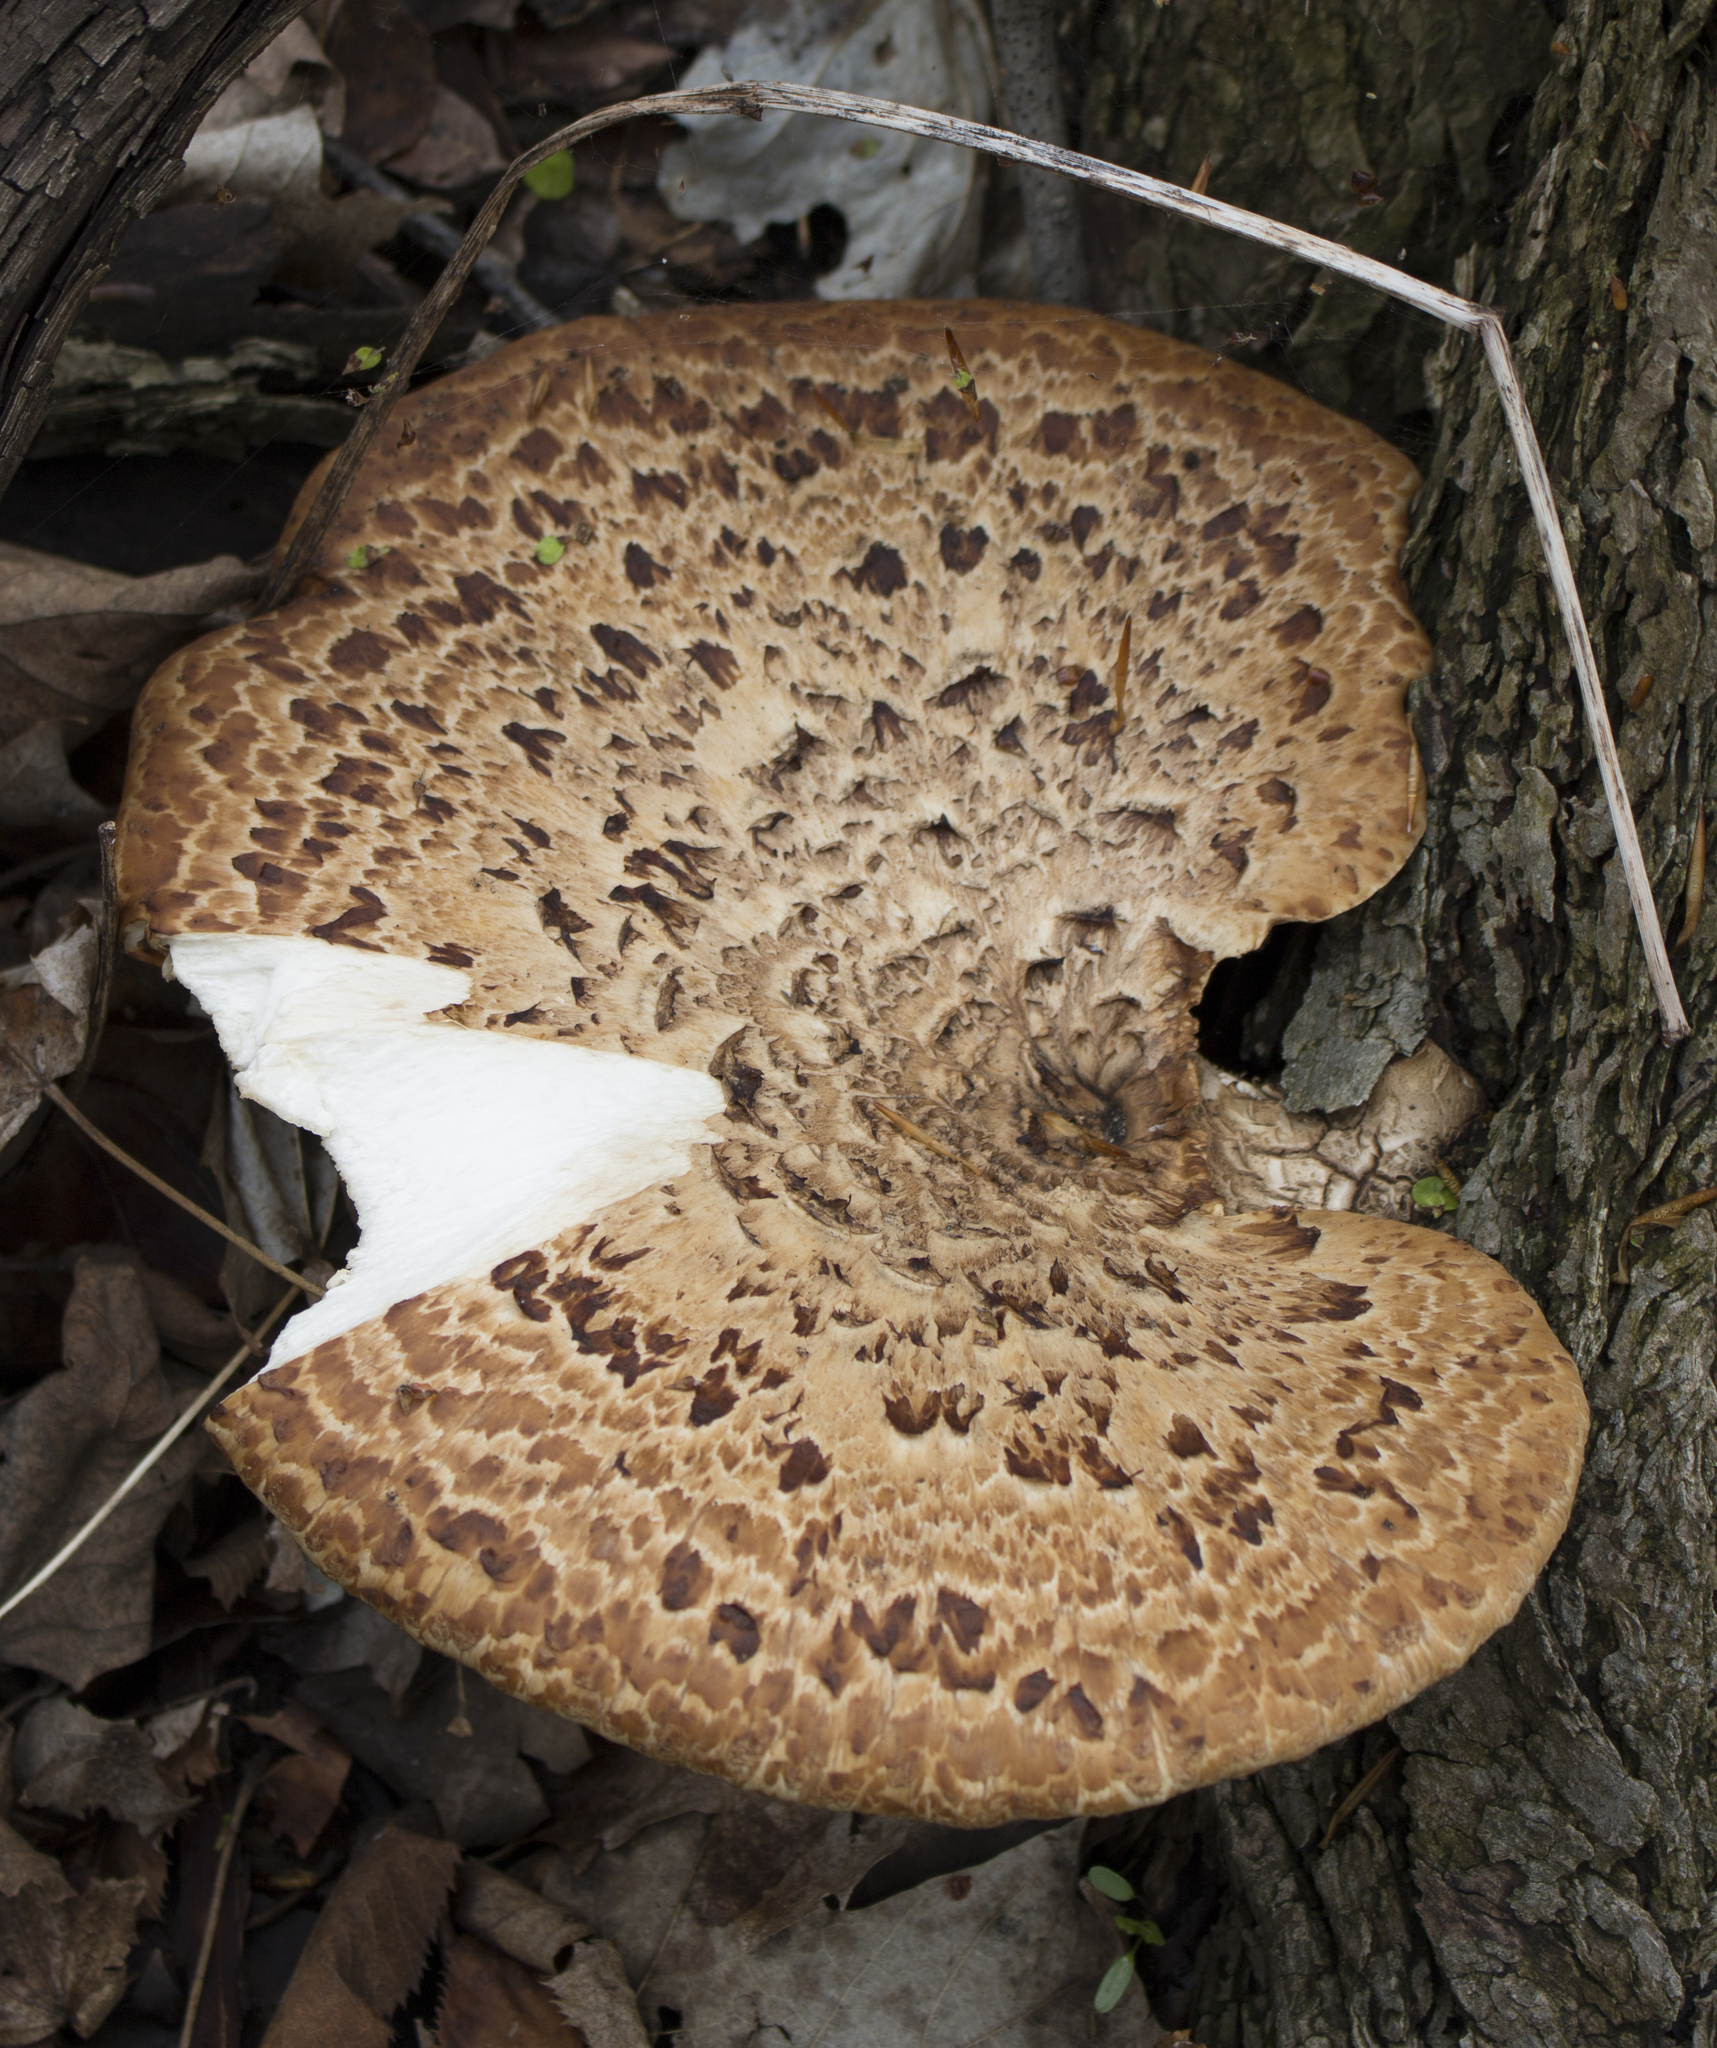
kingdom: Fungi
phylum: Basidiomycota
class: Agaricomycetes
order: Polyporales
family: Polyporaceae
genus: Cerioporus
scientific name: Cerioporus squamosus
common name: Dryad's saddle
